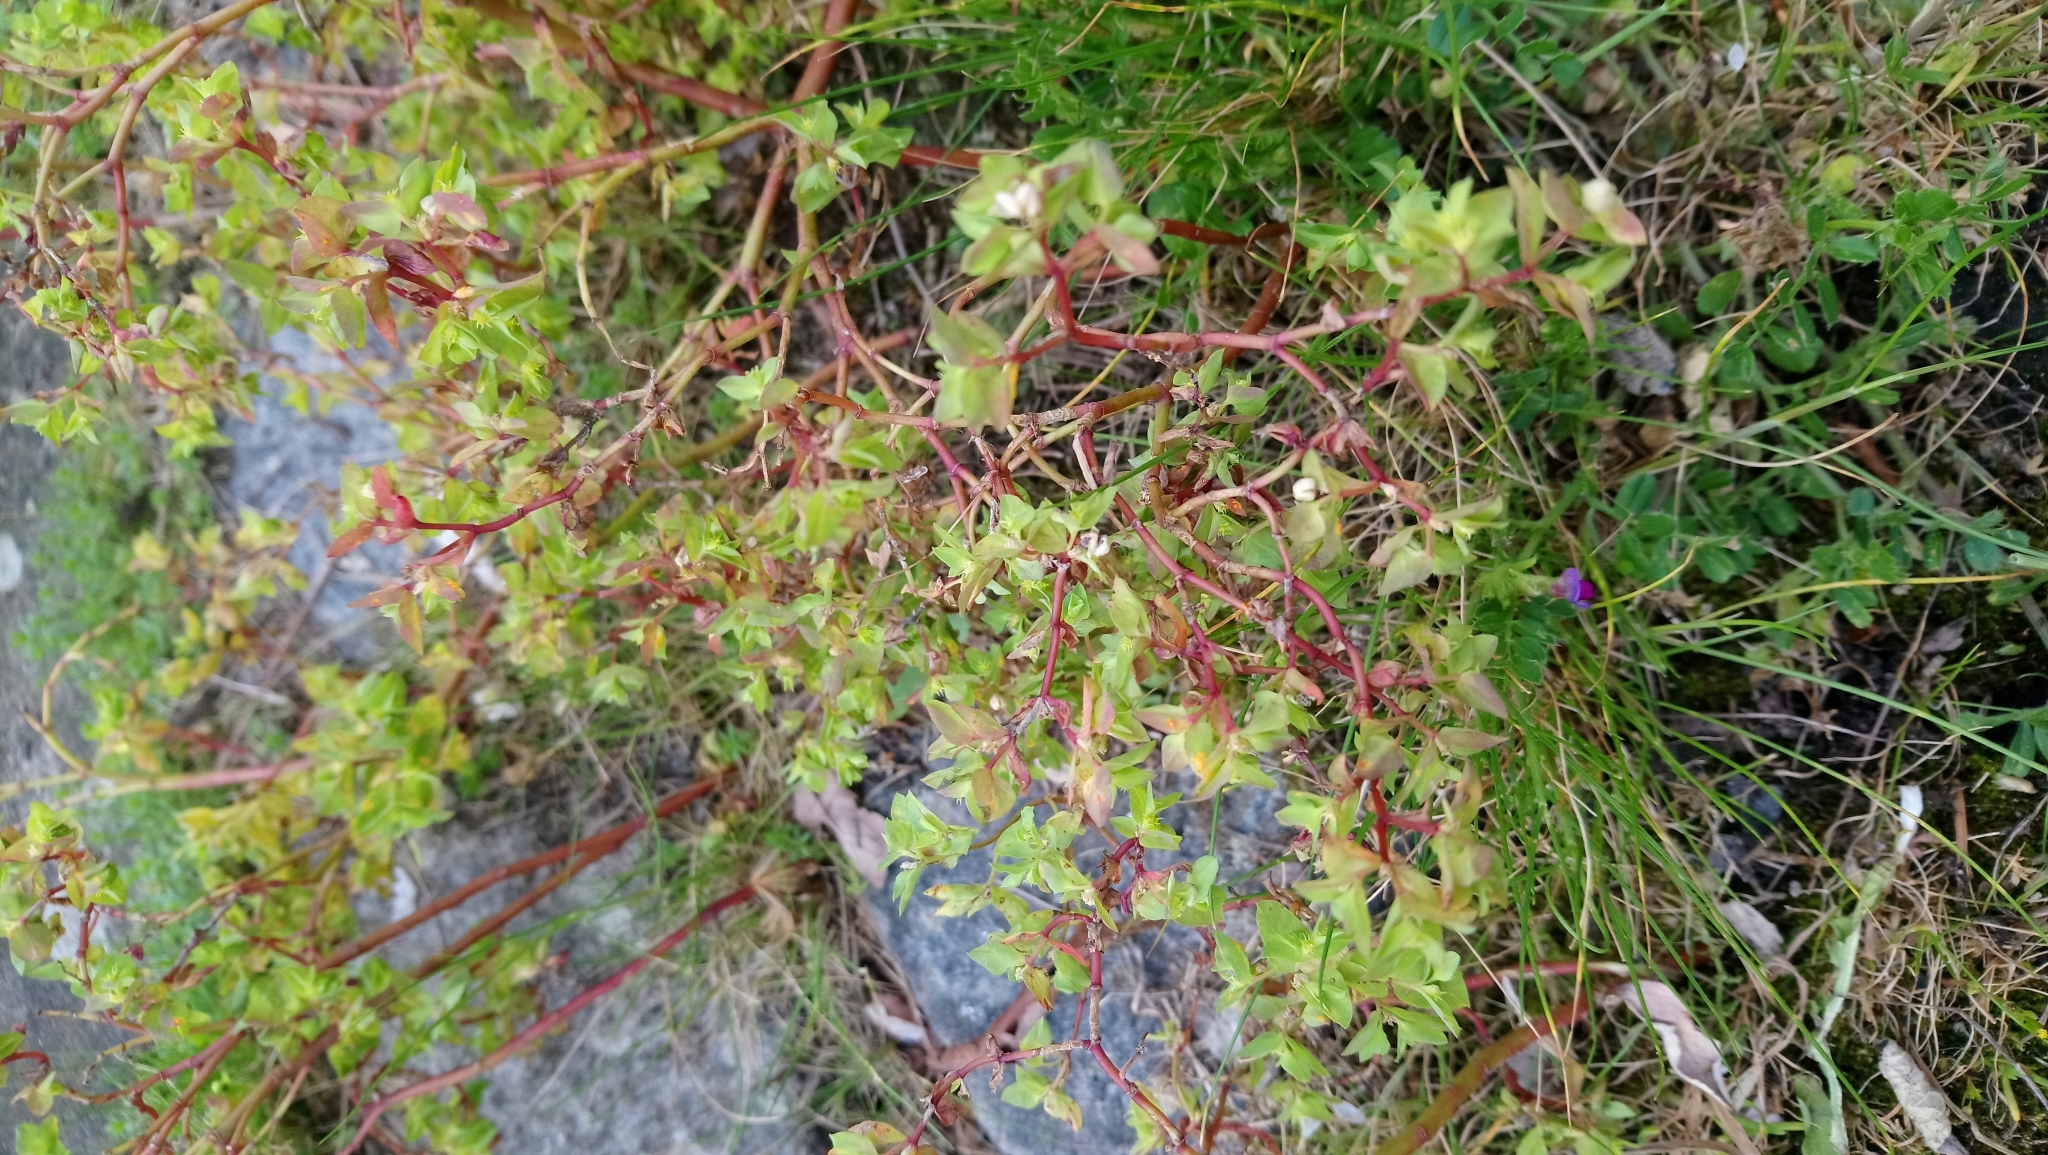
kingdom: Plantae
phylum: Tracheophyta
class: Magnoliopsida
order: Malpighiales
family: Euphorbiaceae
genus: Euphorbia
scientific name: Euphorbia peplus
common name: Petty spurge
